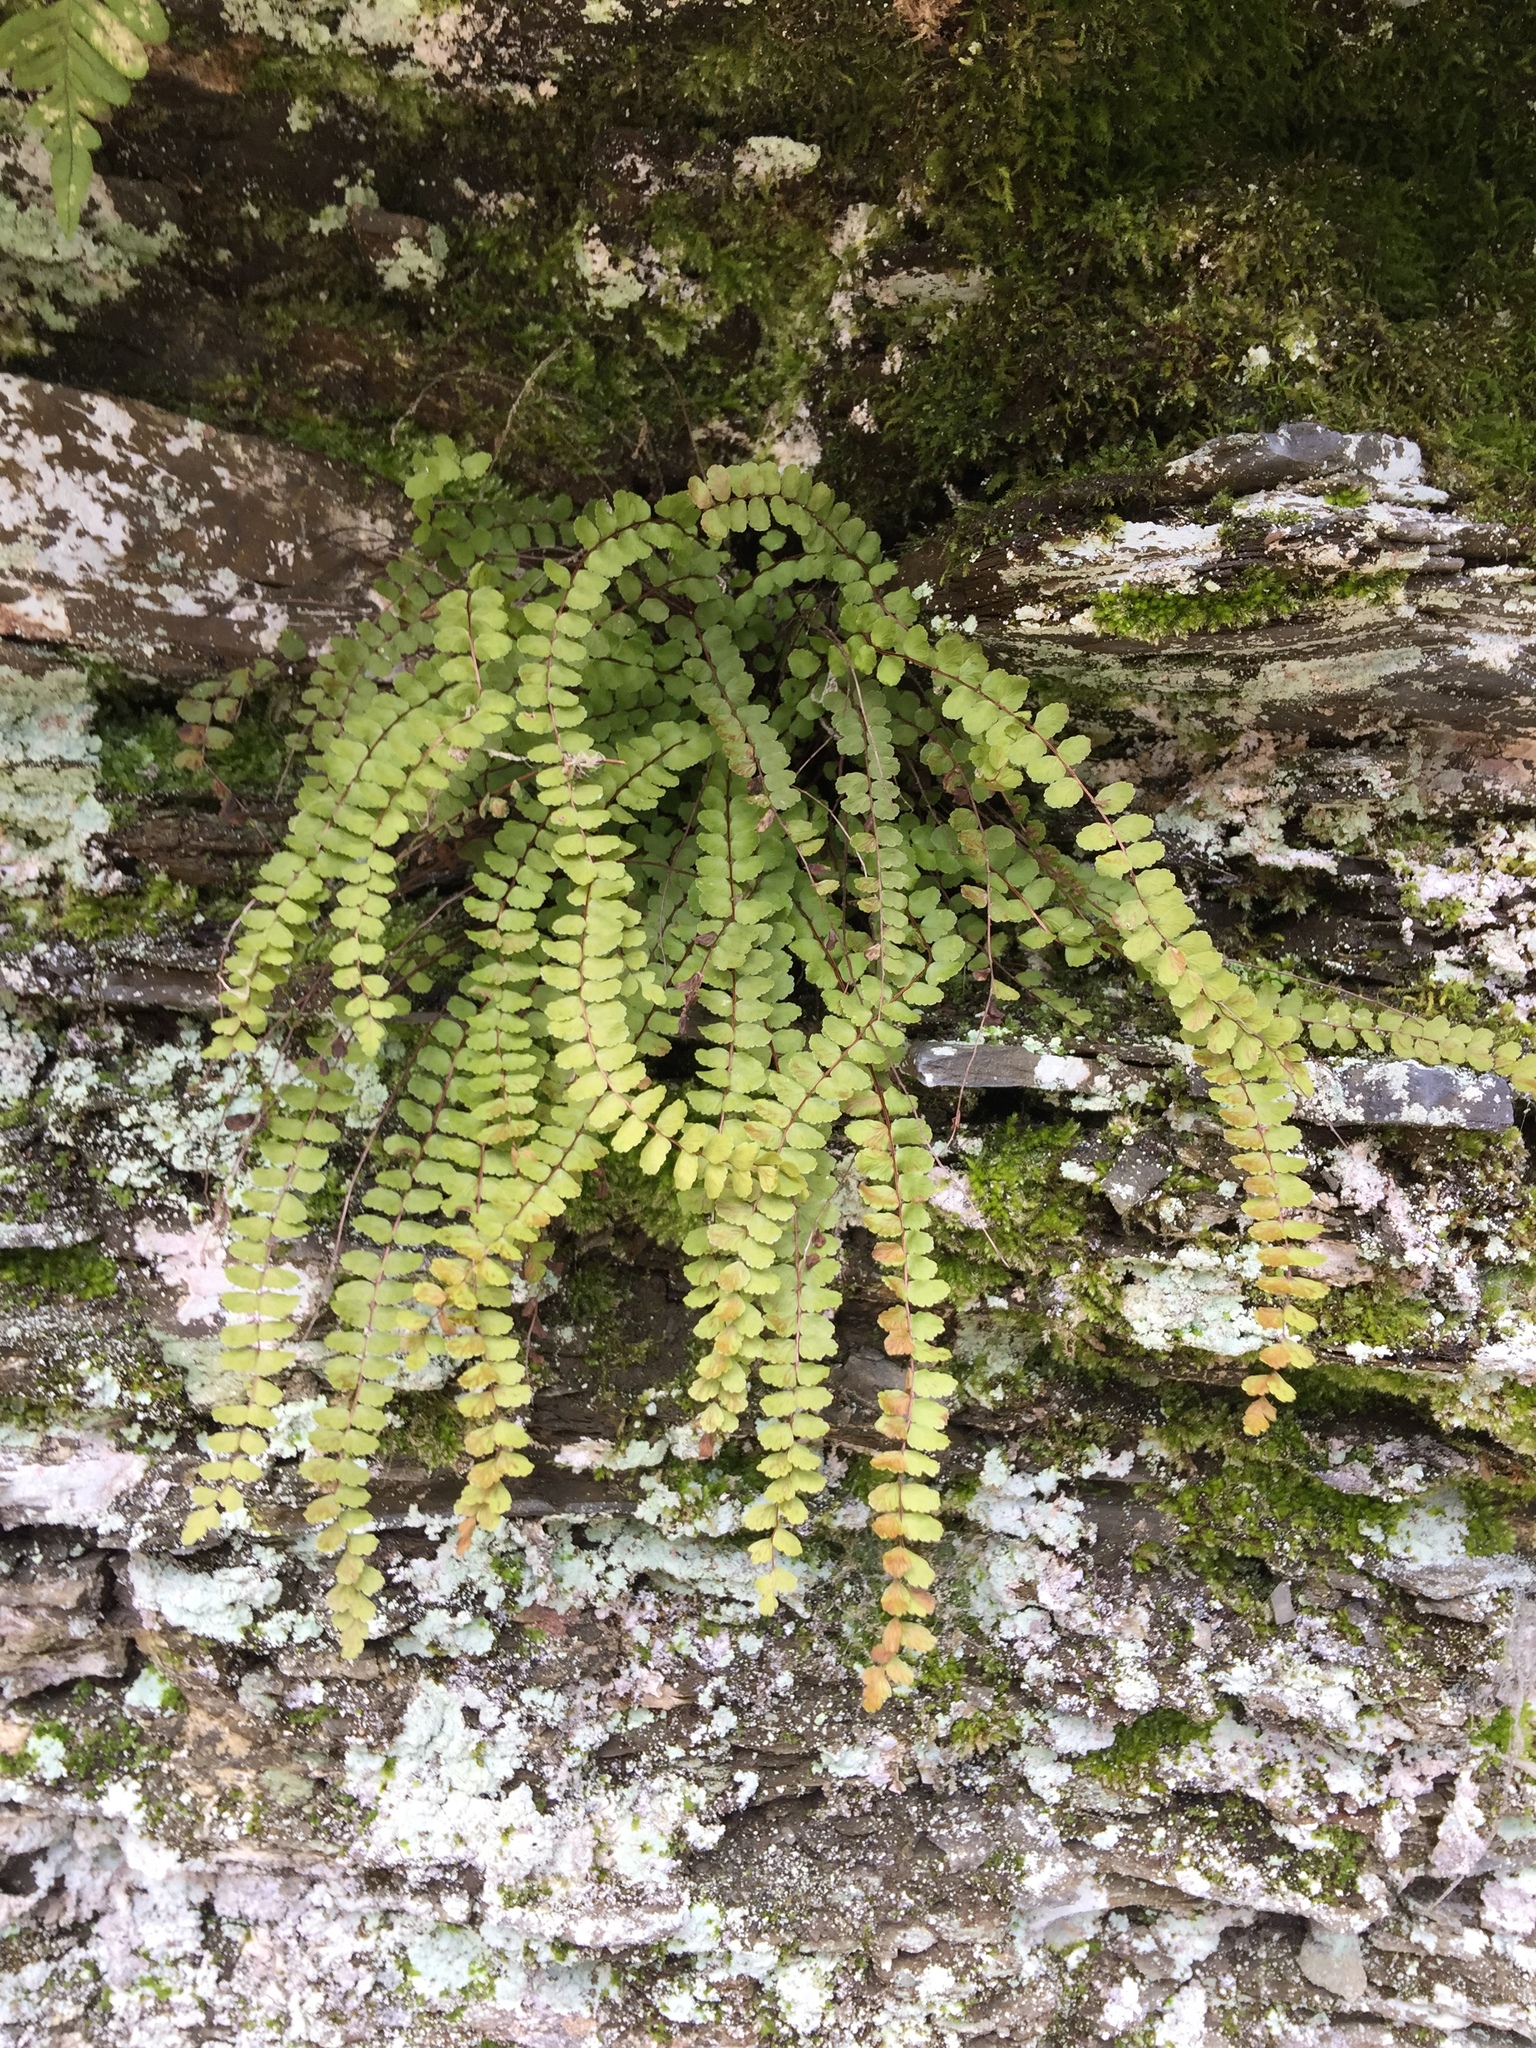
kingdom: Plantae
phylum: Tracheophyta
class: Polypodiopsida
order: Polypodiales
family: Aspleniaceae
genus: Asplenium
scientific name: Asplenium trichomanes
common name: Maidenhair spleenwort
